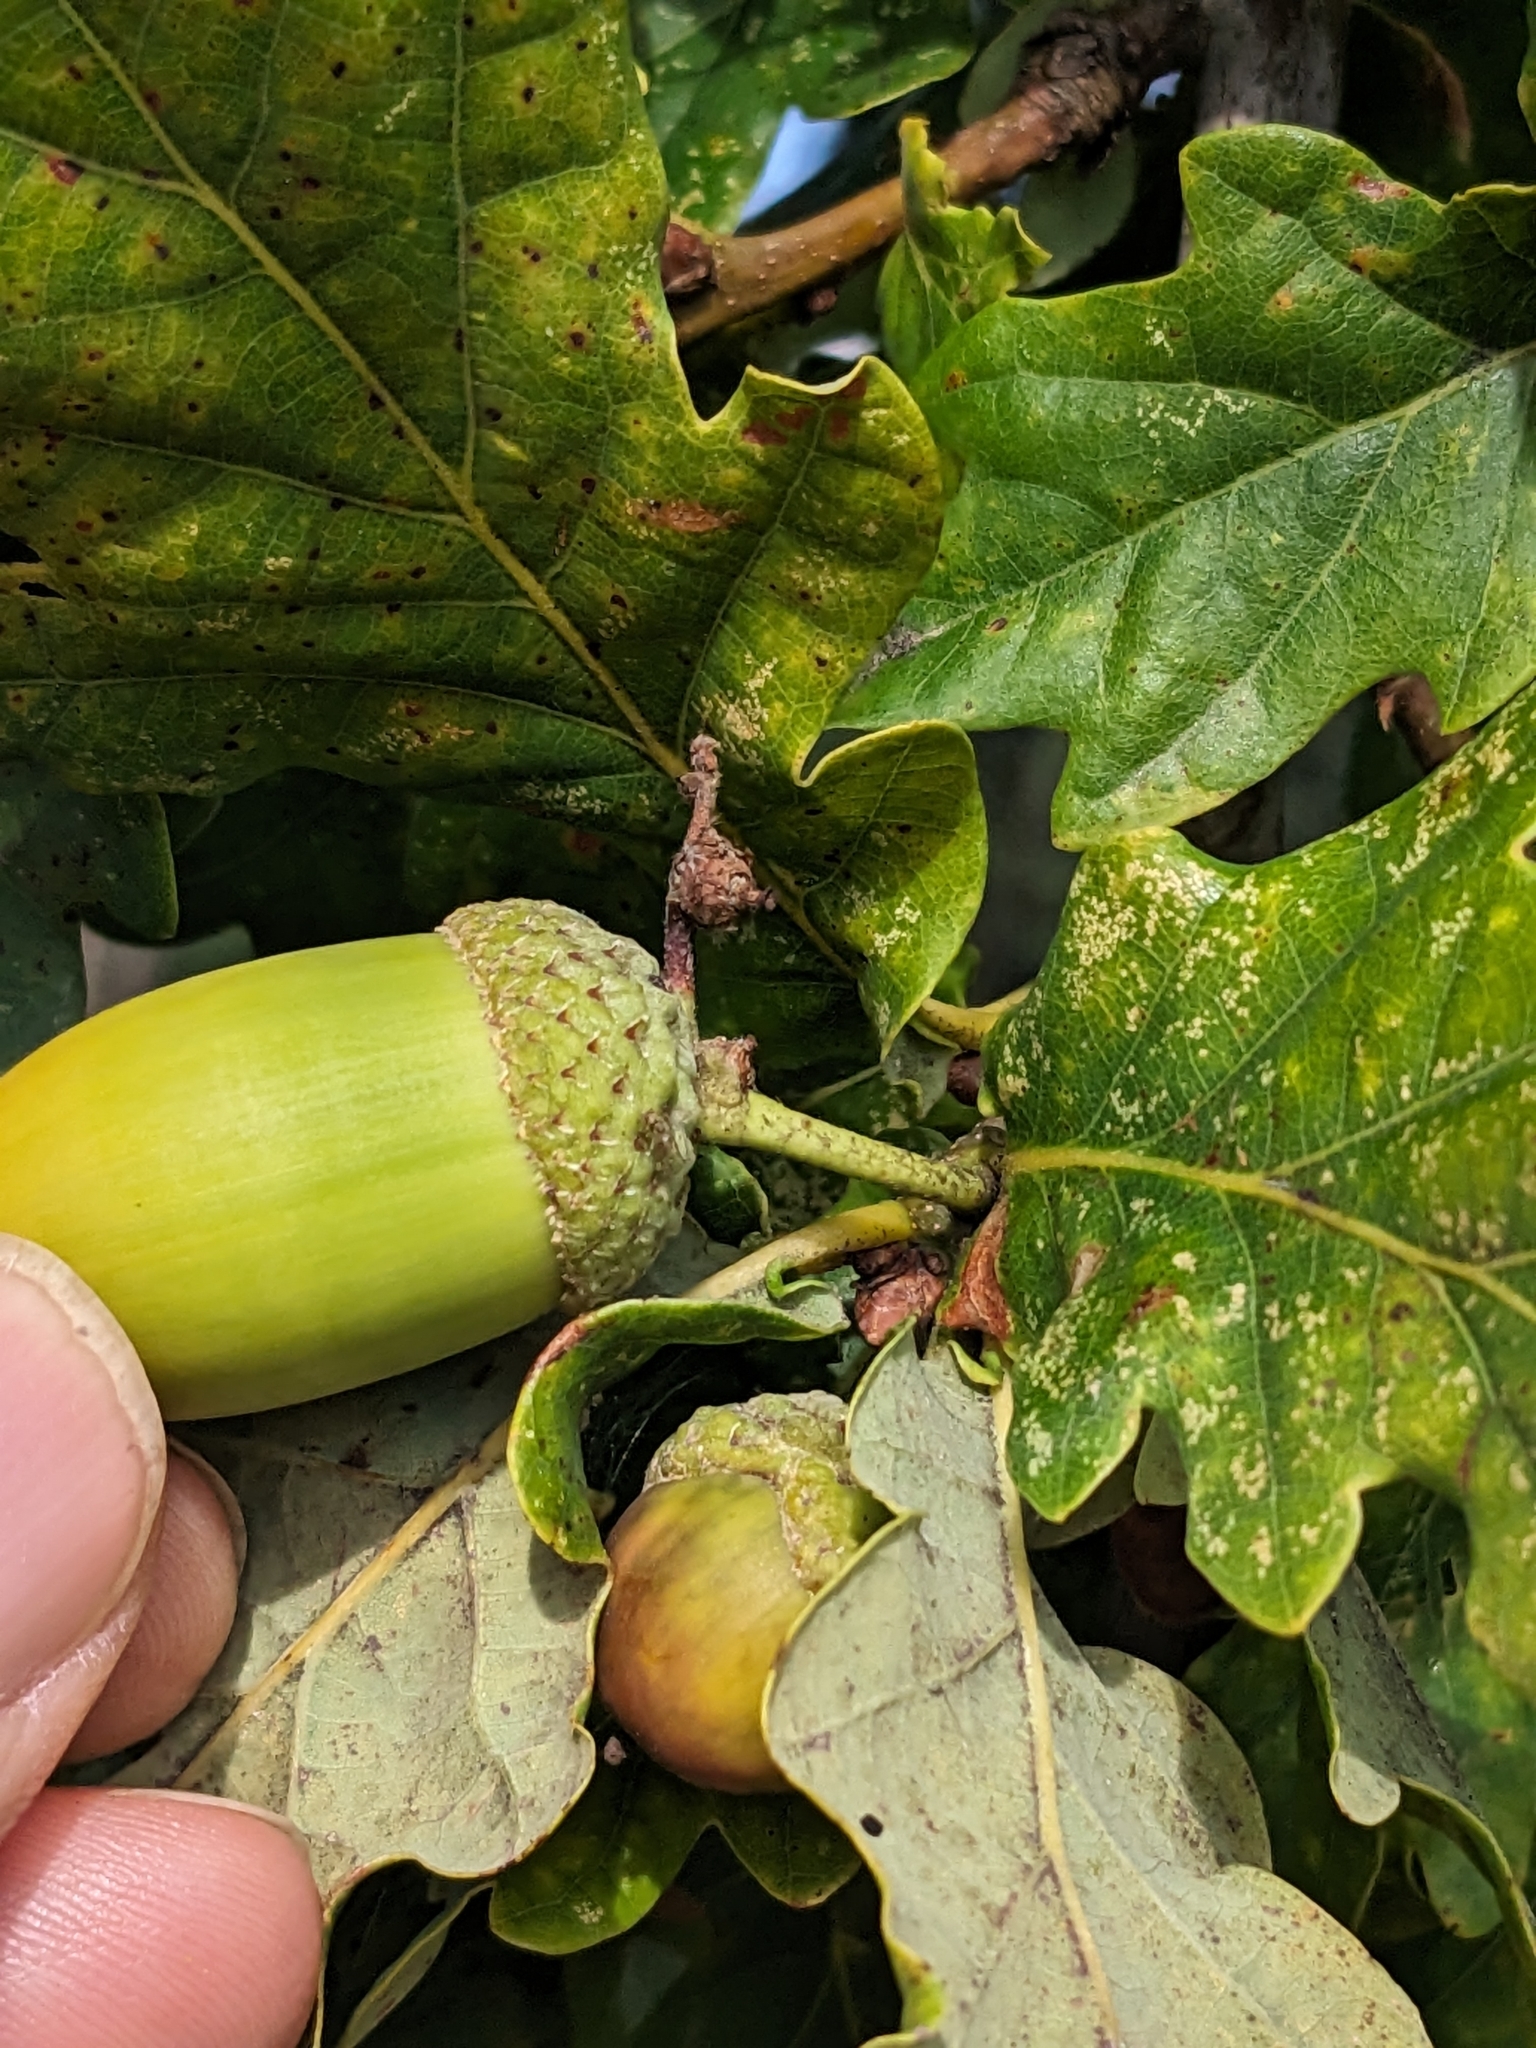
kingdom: Plantae
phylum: Tracheophyta
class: Magnoliopsida
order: Fagales
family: Fagaceae
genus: Quercus
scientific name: Quercus robur
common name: Pedunculate oak
